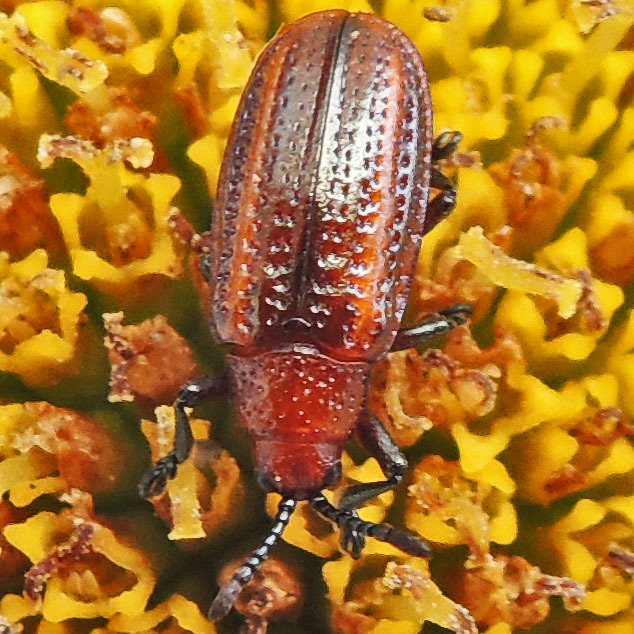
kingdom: Animalia
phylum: Arthropoda
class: Insecta
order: Coleoptera
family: Chrysomelidae
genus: Microrhopala
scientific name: Microrhopala vittata
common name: Goldenrod leaf miner beetle
